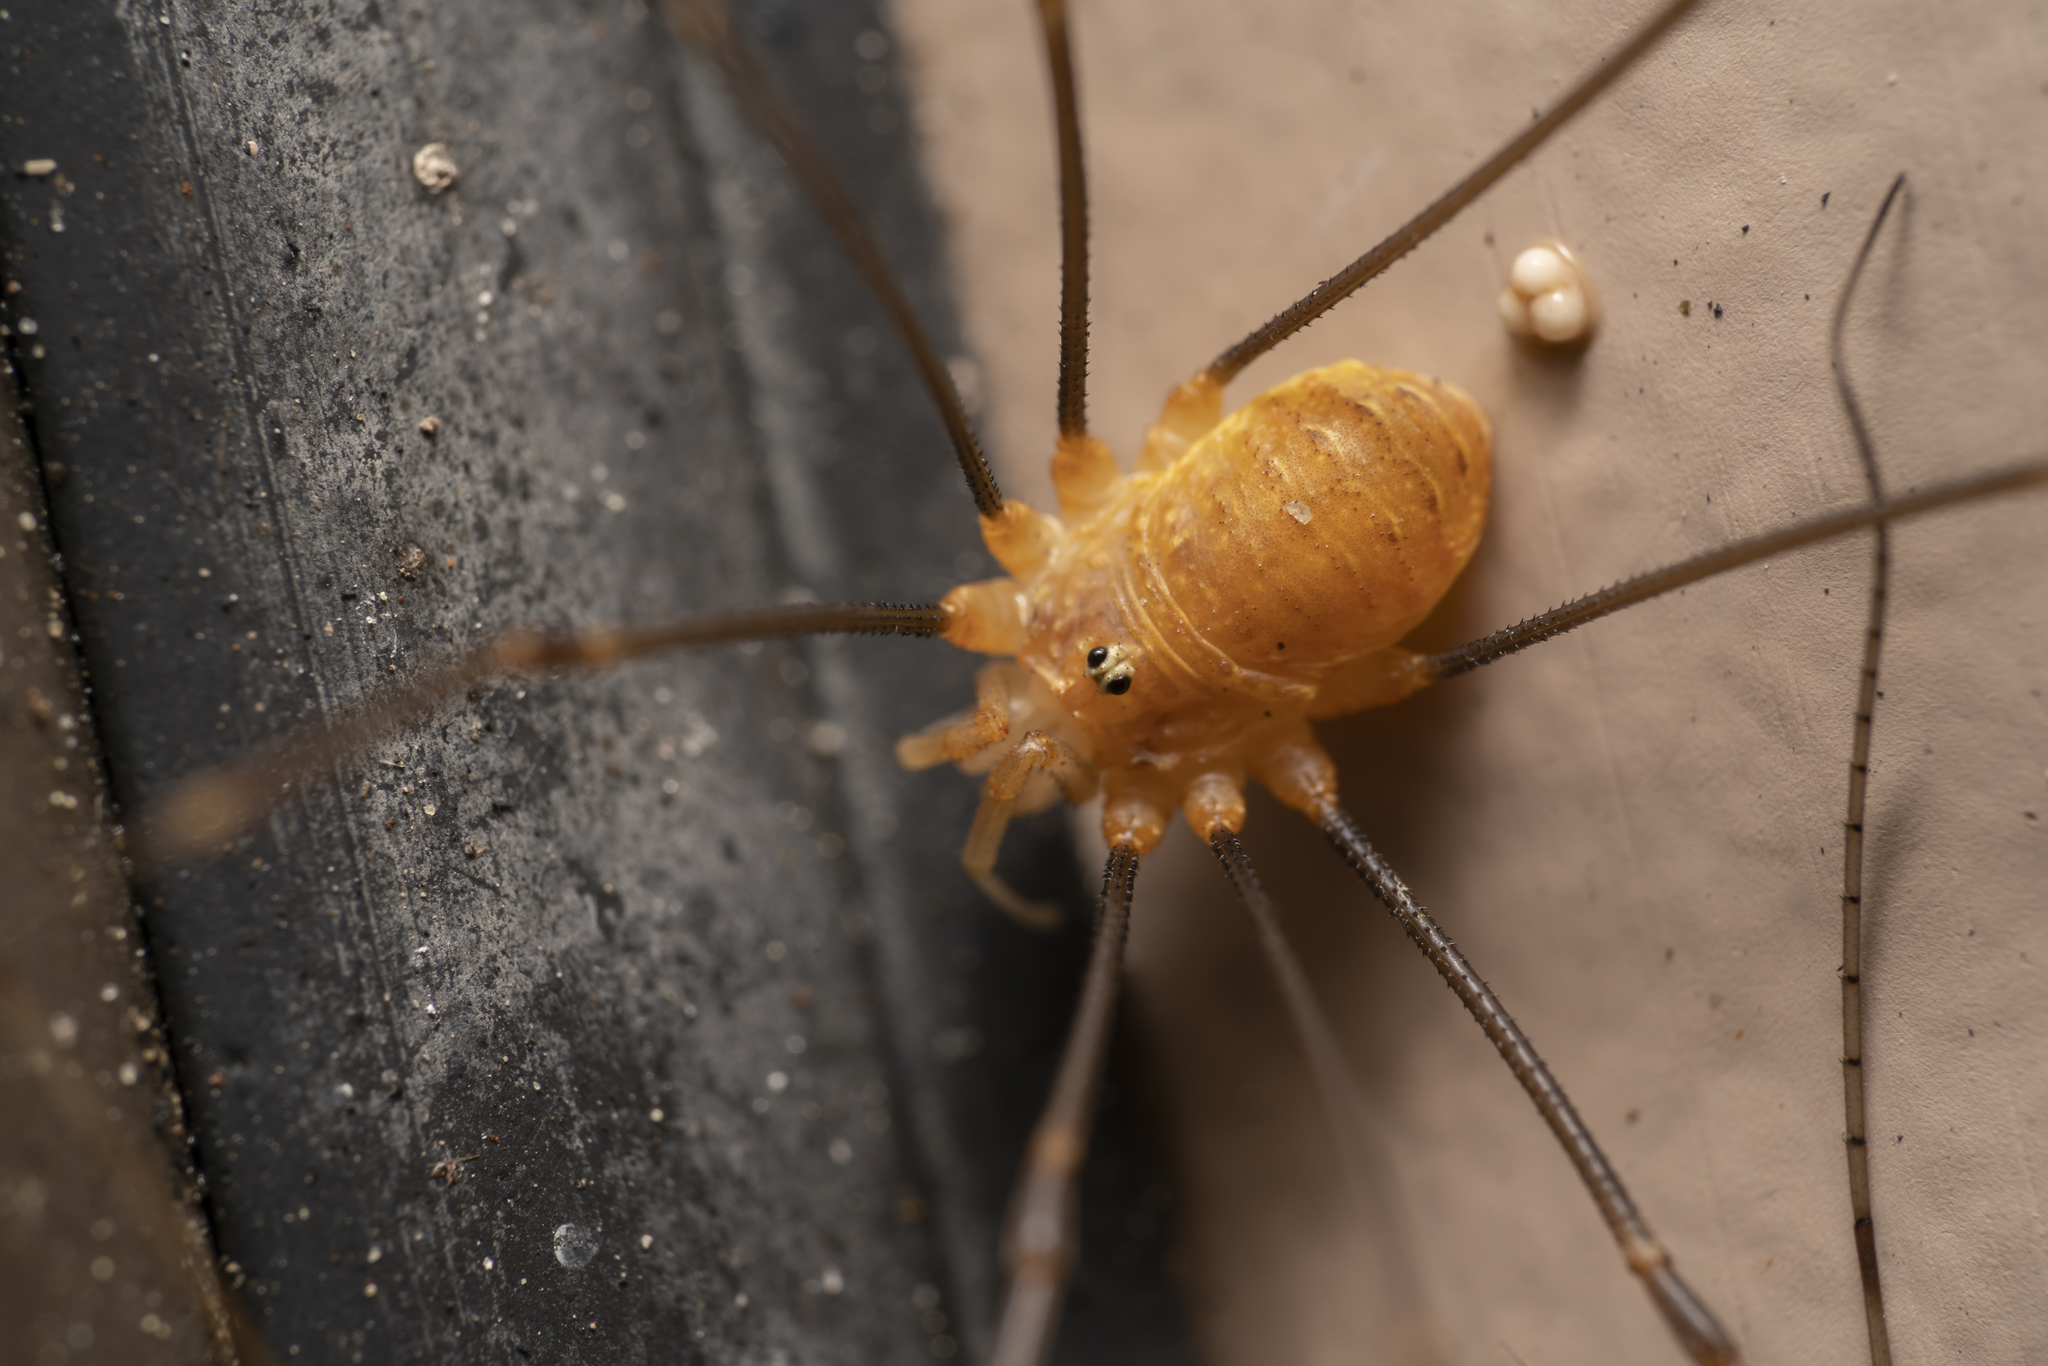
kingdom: Animalia
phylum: Arthropoda
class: Arachnida
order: Opiliones
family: Phalangiidae
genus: Opilio
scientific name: Opilio canestrinii
